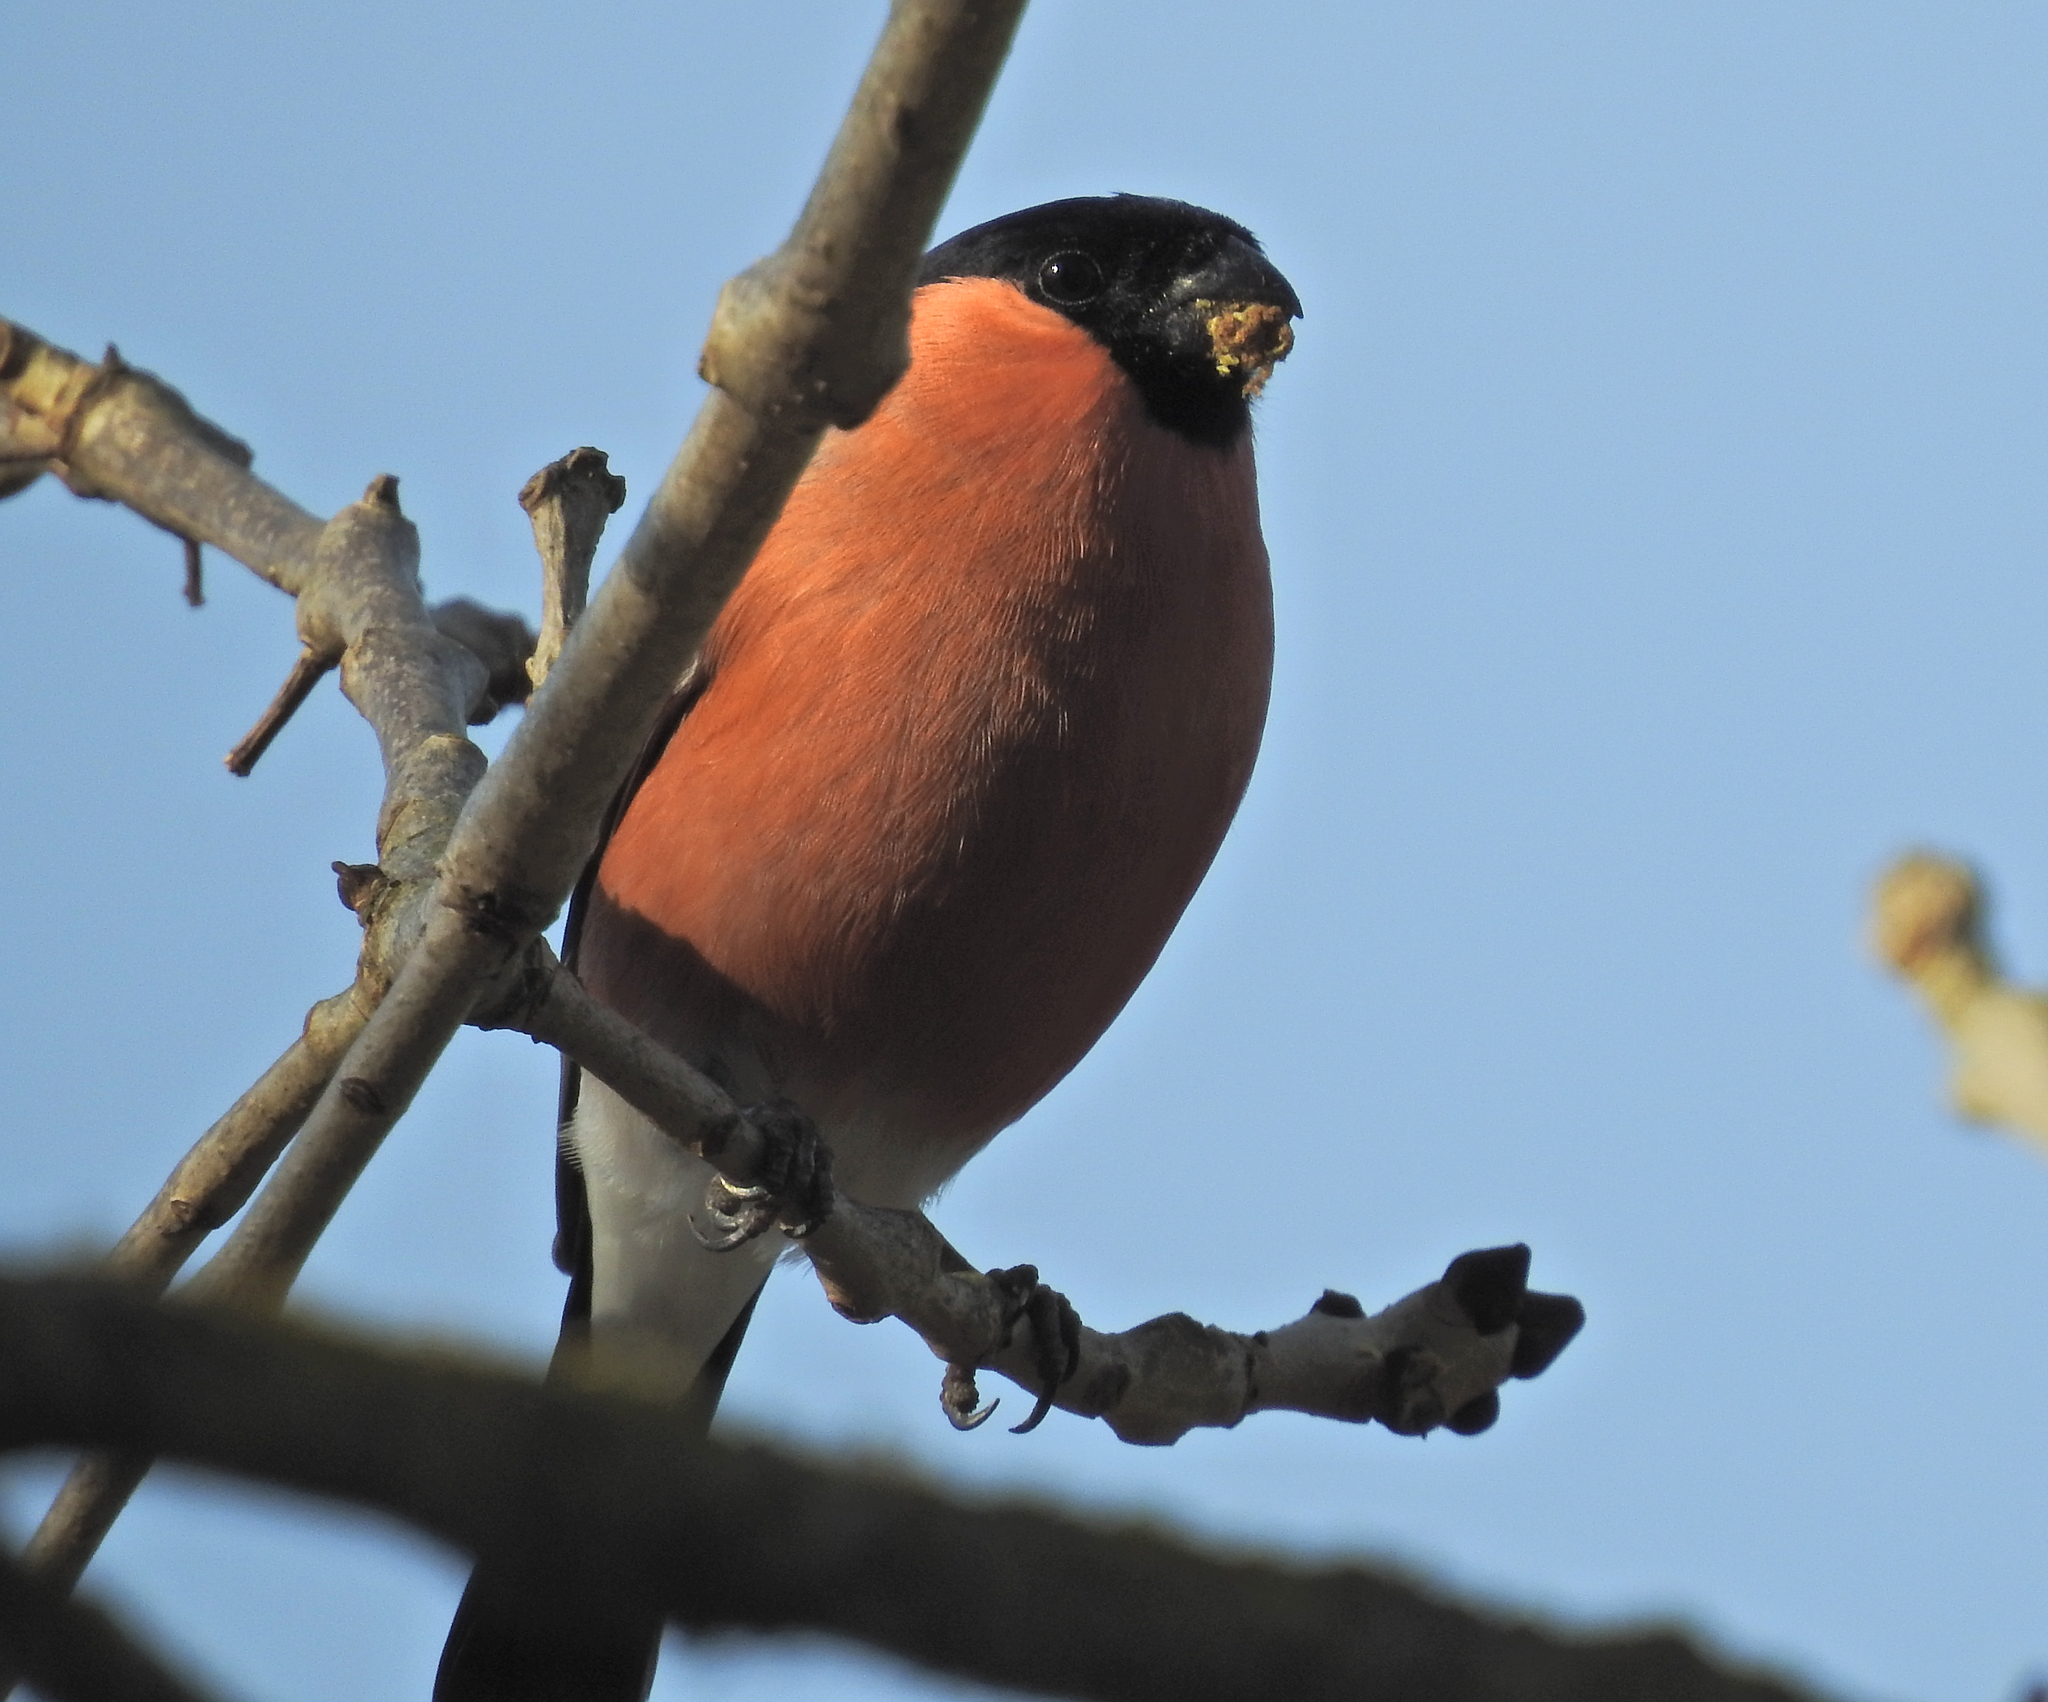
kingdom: Animalia
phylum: Chordata
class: Aves
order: Passeriformes
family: Fringillidae
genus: Pyrrhula
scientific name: Pyrrhula pyrrhula
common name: Eurasian bullfinch
